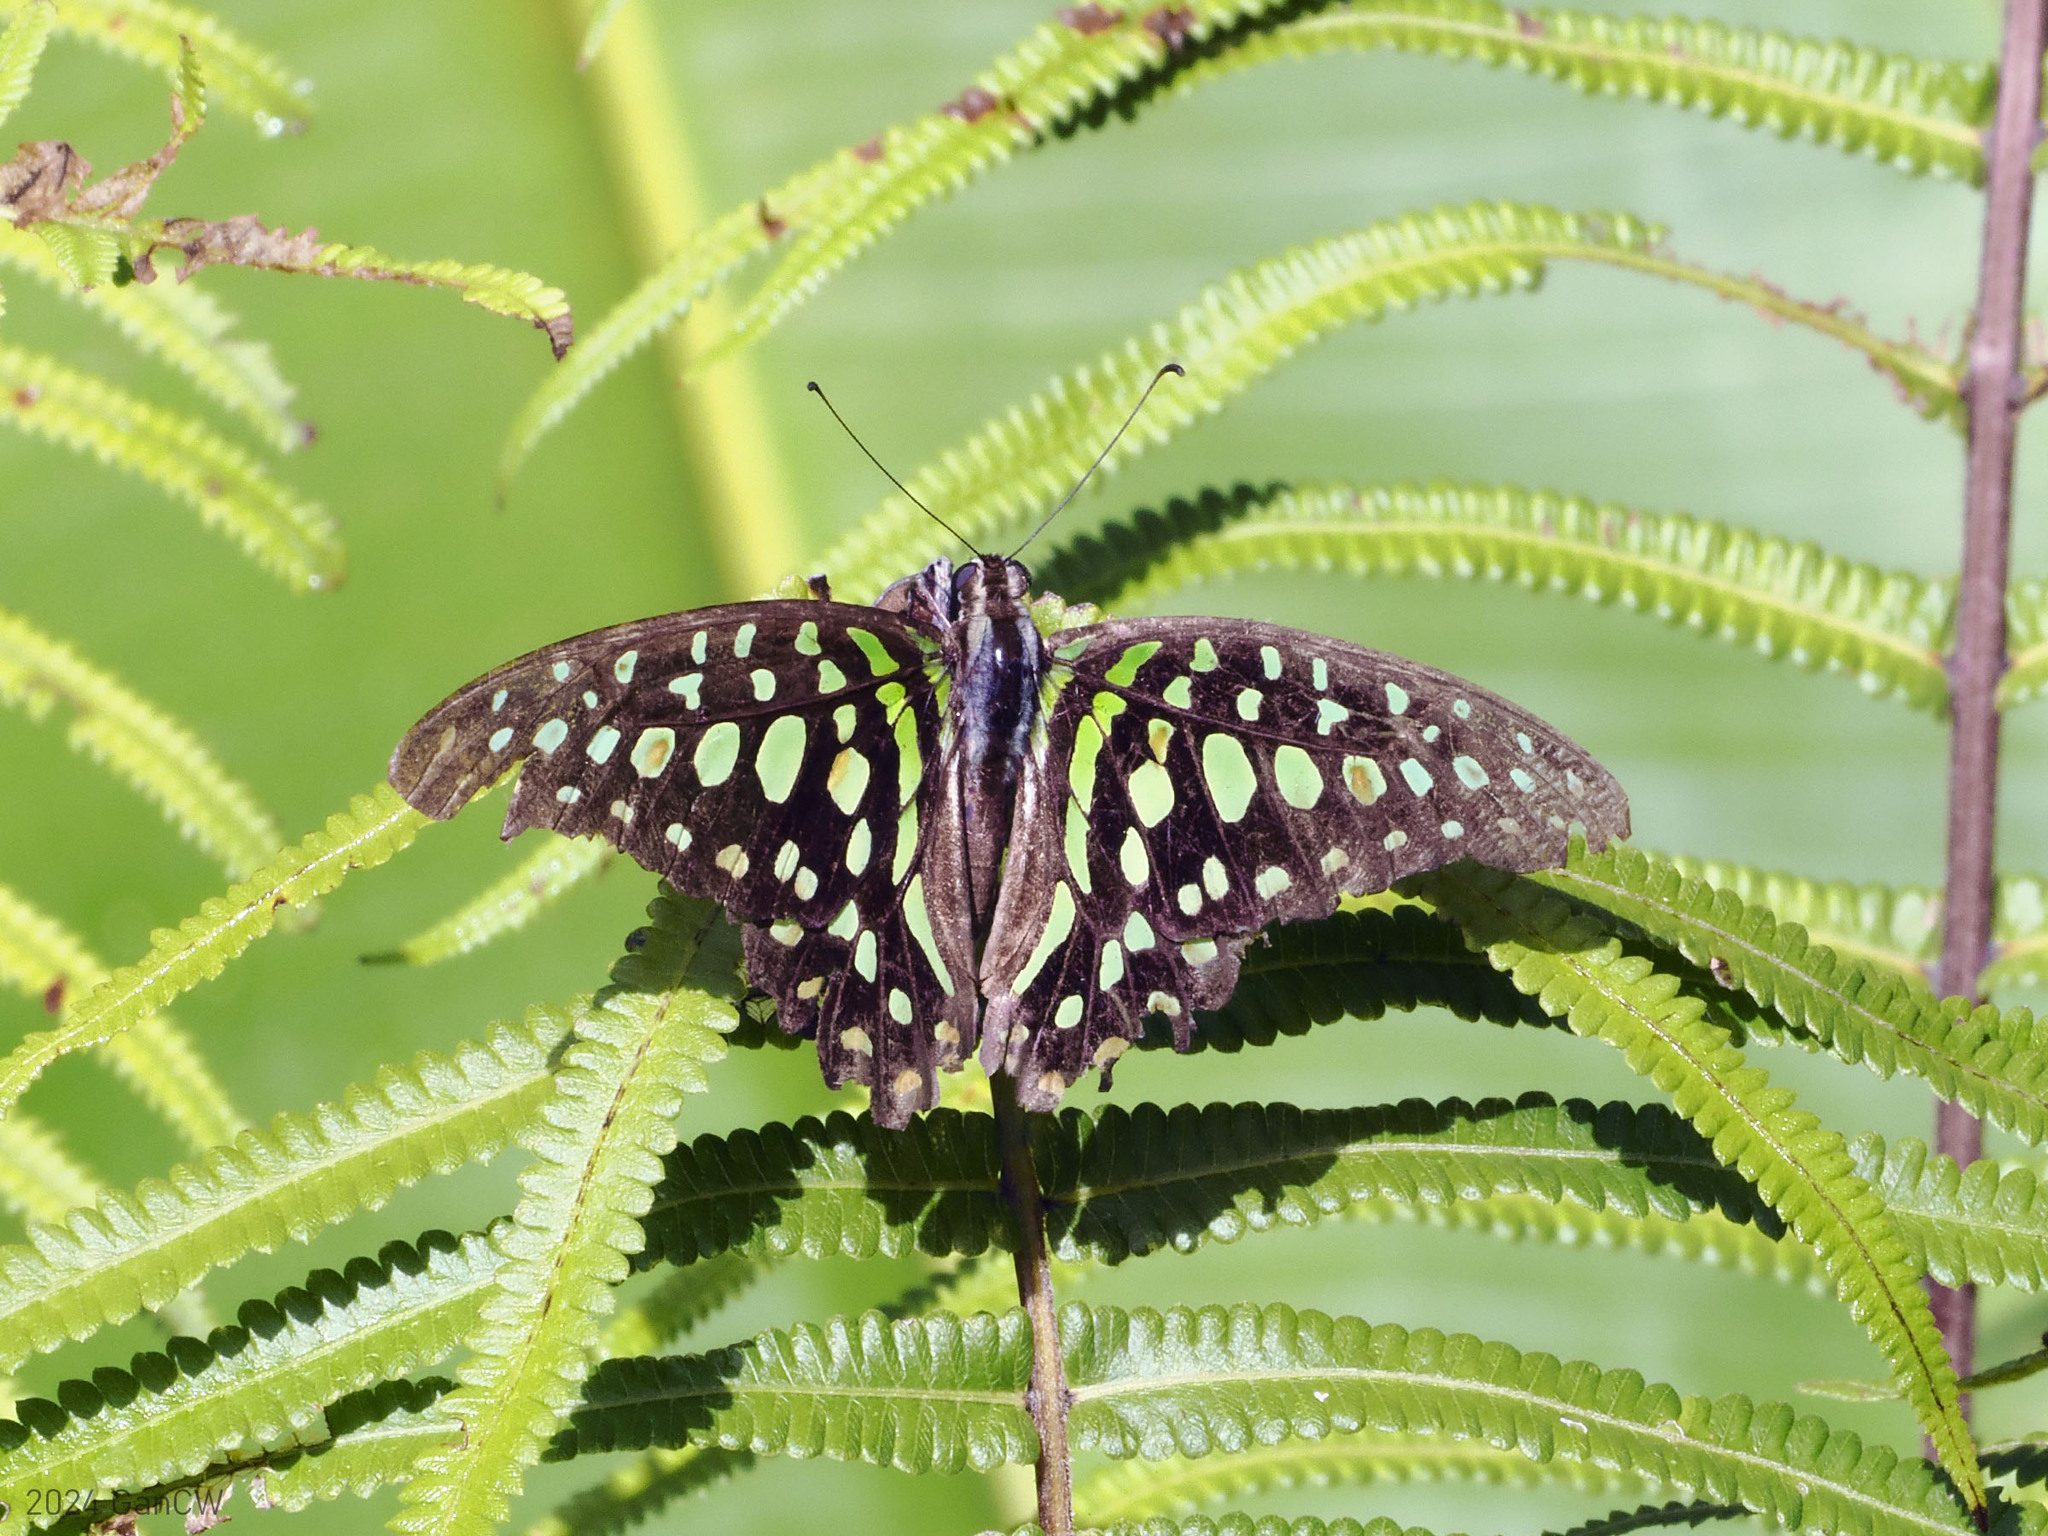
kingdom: Animalia
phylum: Arthropoda
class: Insecta
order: Lepidoptera
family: Papilionidae
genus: Graphium
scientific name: Graphium agamemnon
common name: Tailed jay
